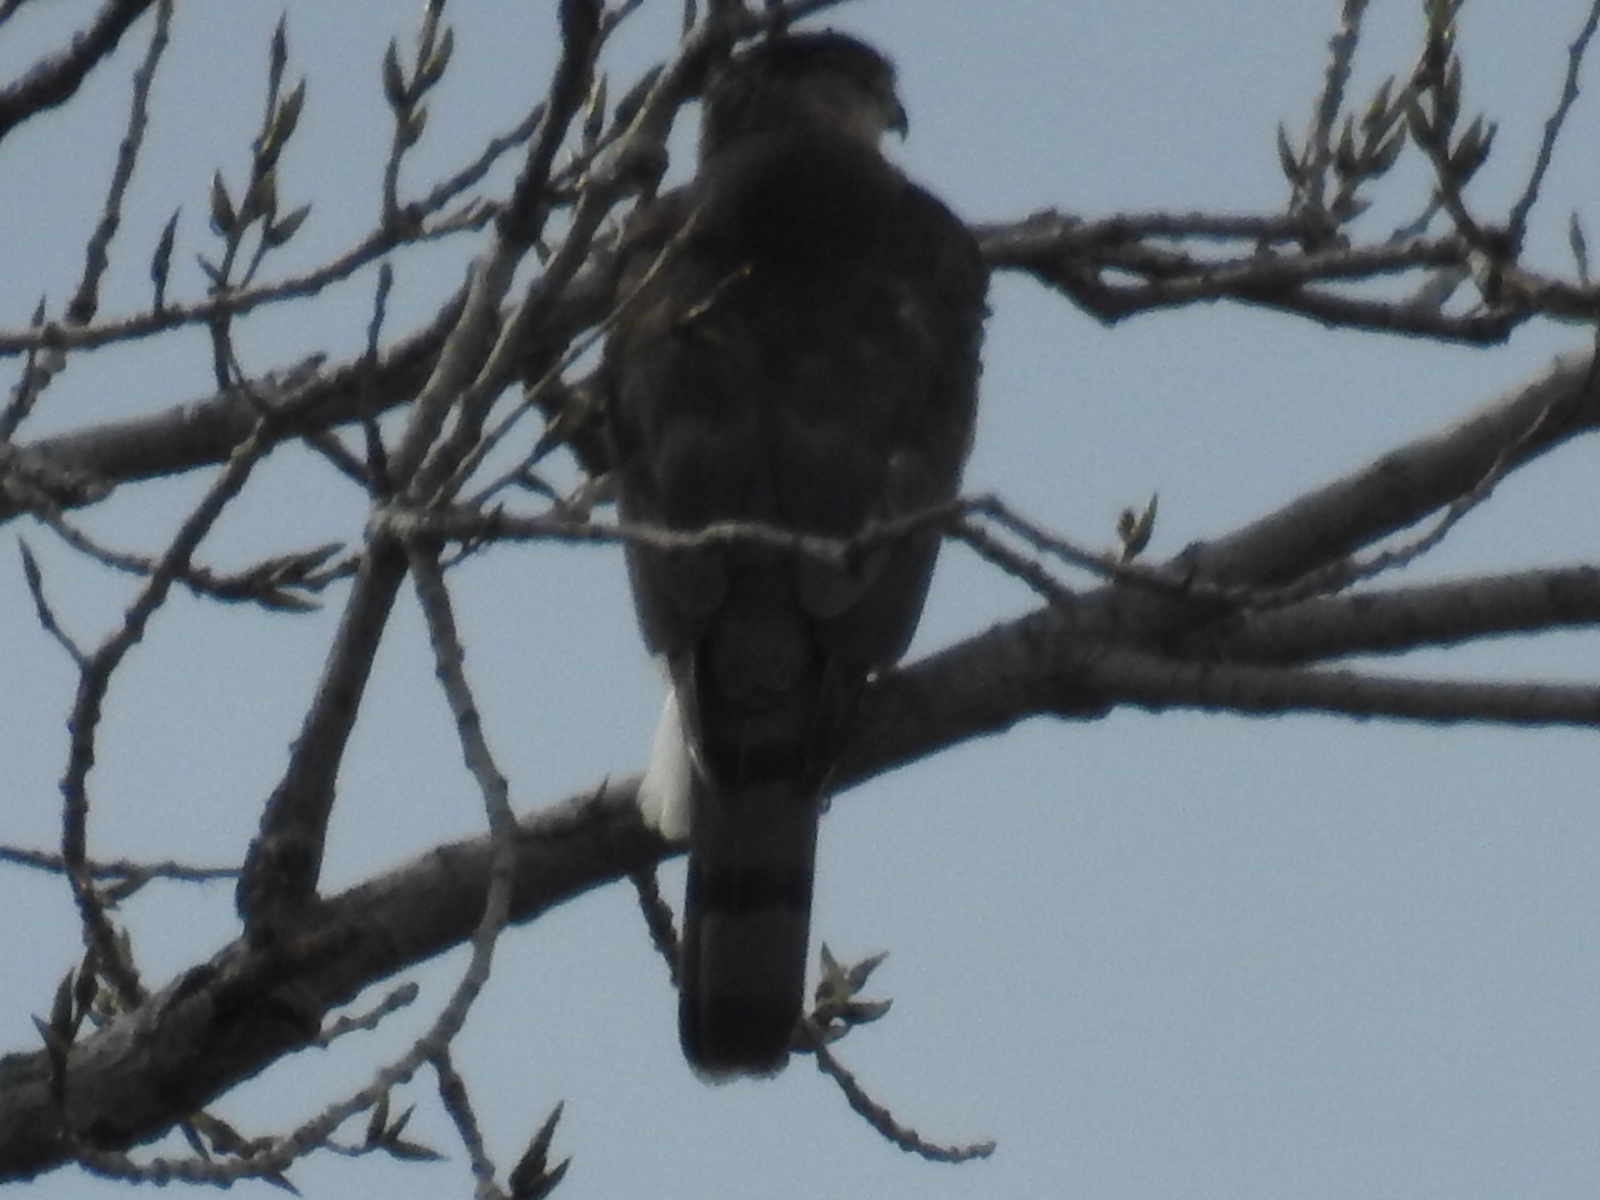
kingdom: Animalia
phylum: Chordata
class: Aves
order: Accipitriformes
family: Accipitridae
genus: Accipiter
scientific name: Accipiter cooperii
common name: Cooper's hawk
